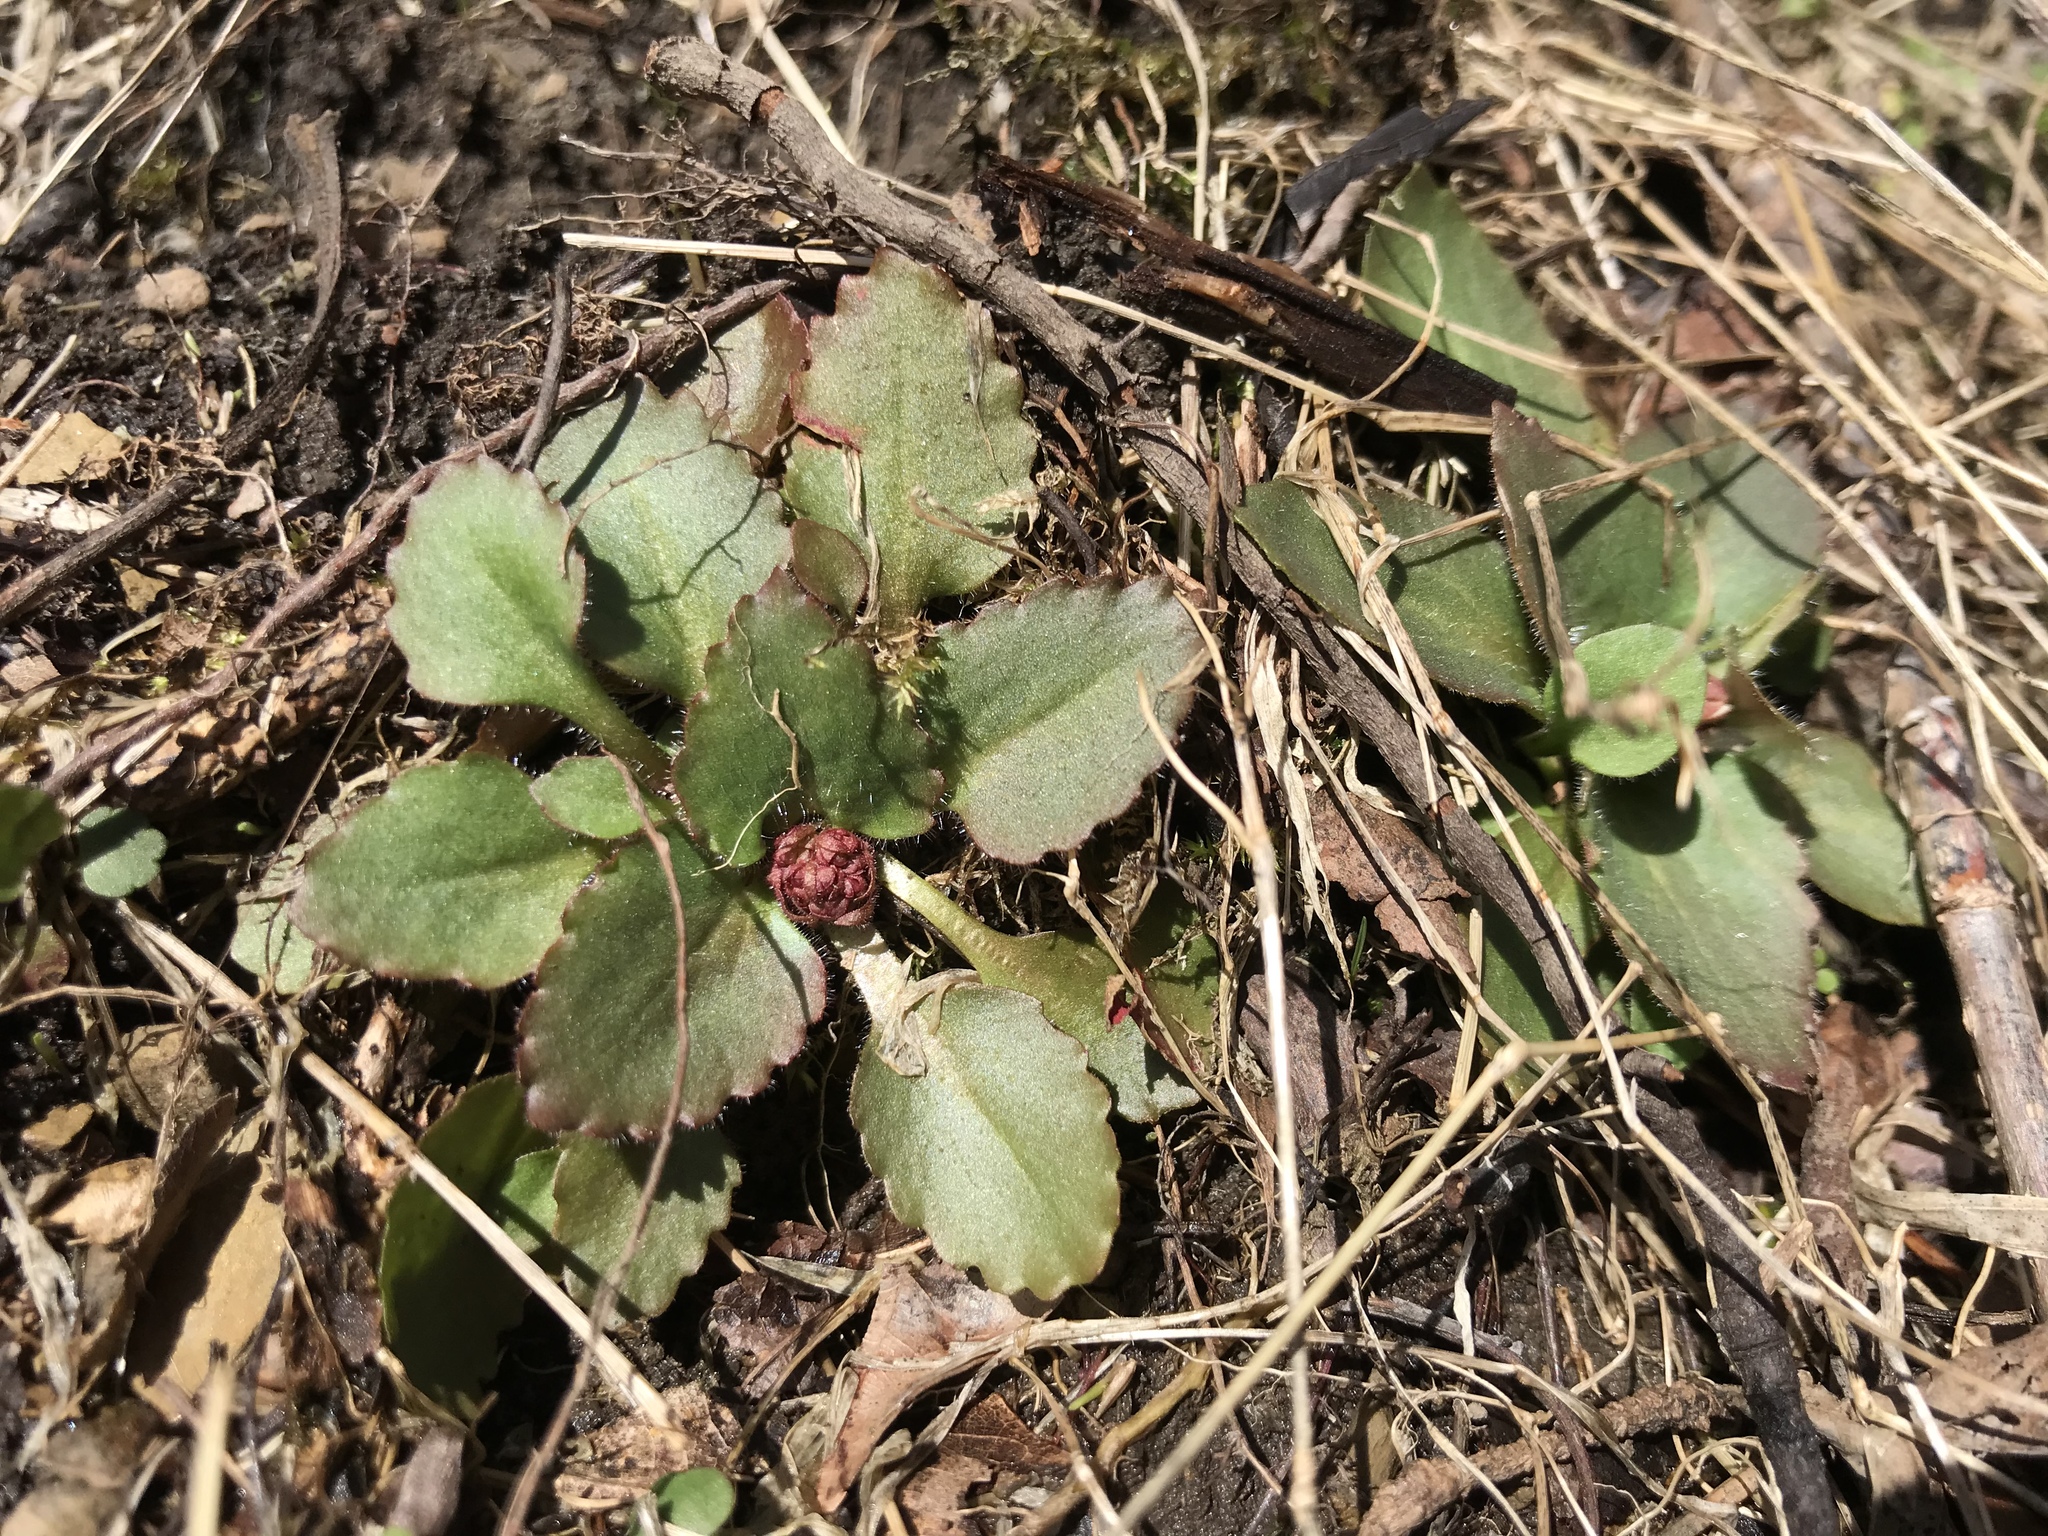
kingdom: Plantae
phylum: Tracheophyta
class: Magnoliopsida
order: Saxifragales
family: Saxifragaceae
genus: Micranthes
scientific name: Micranthes virginiensis
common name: Early saxifrage
